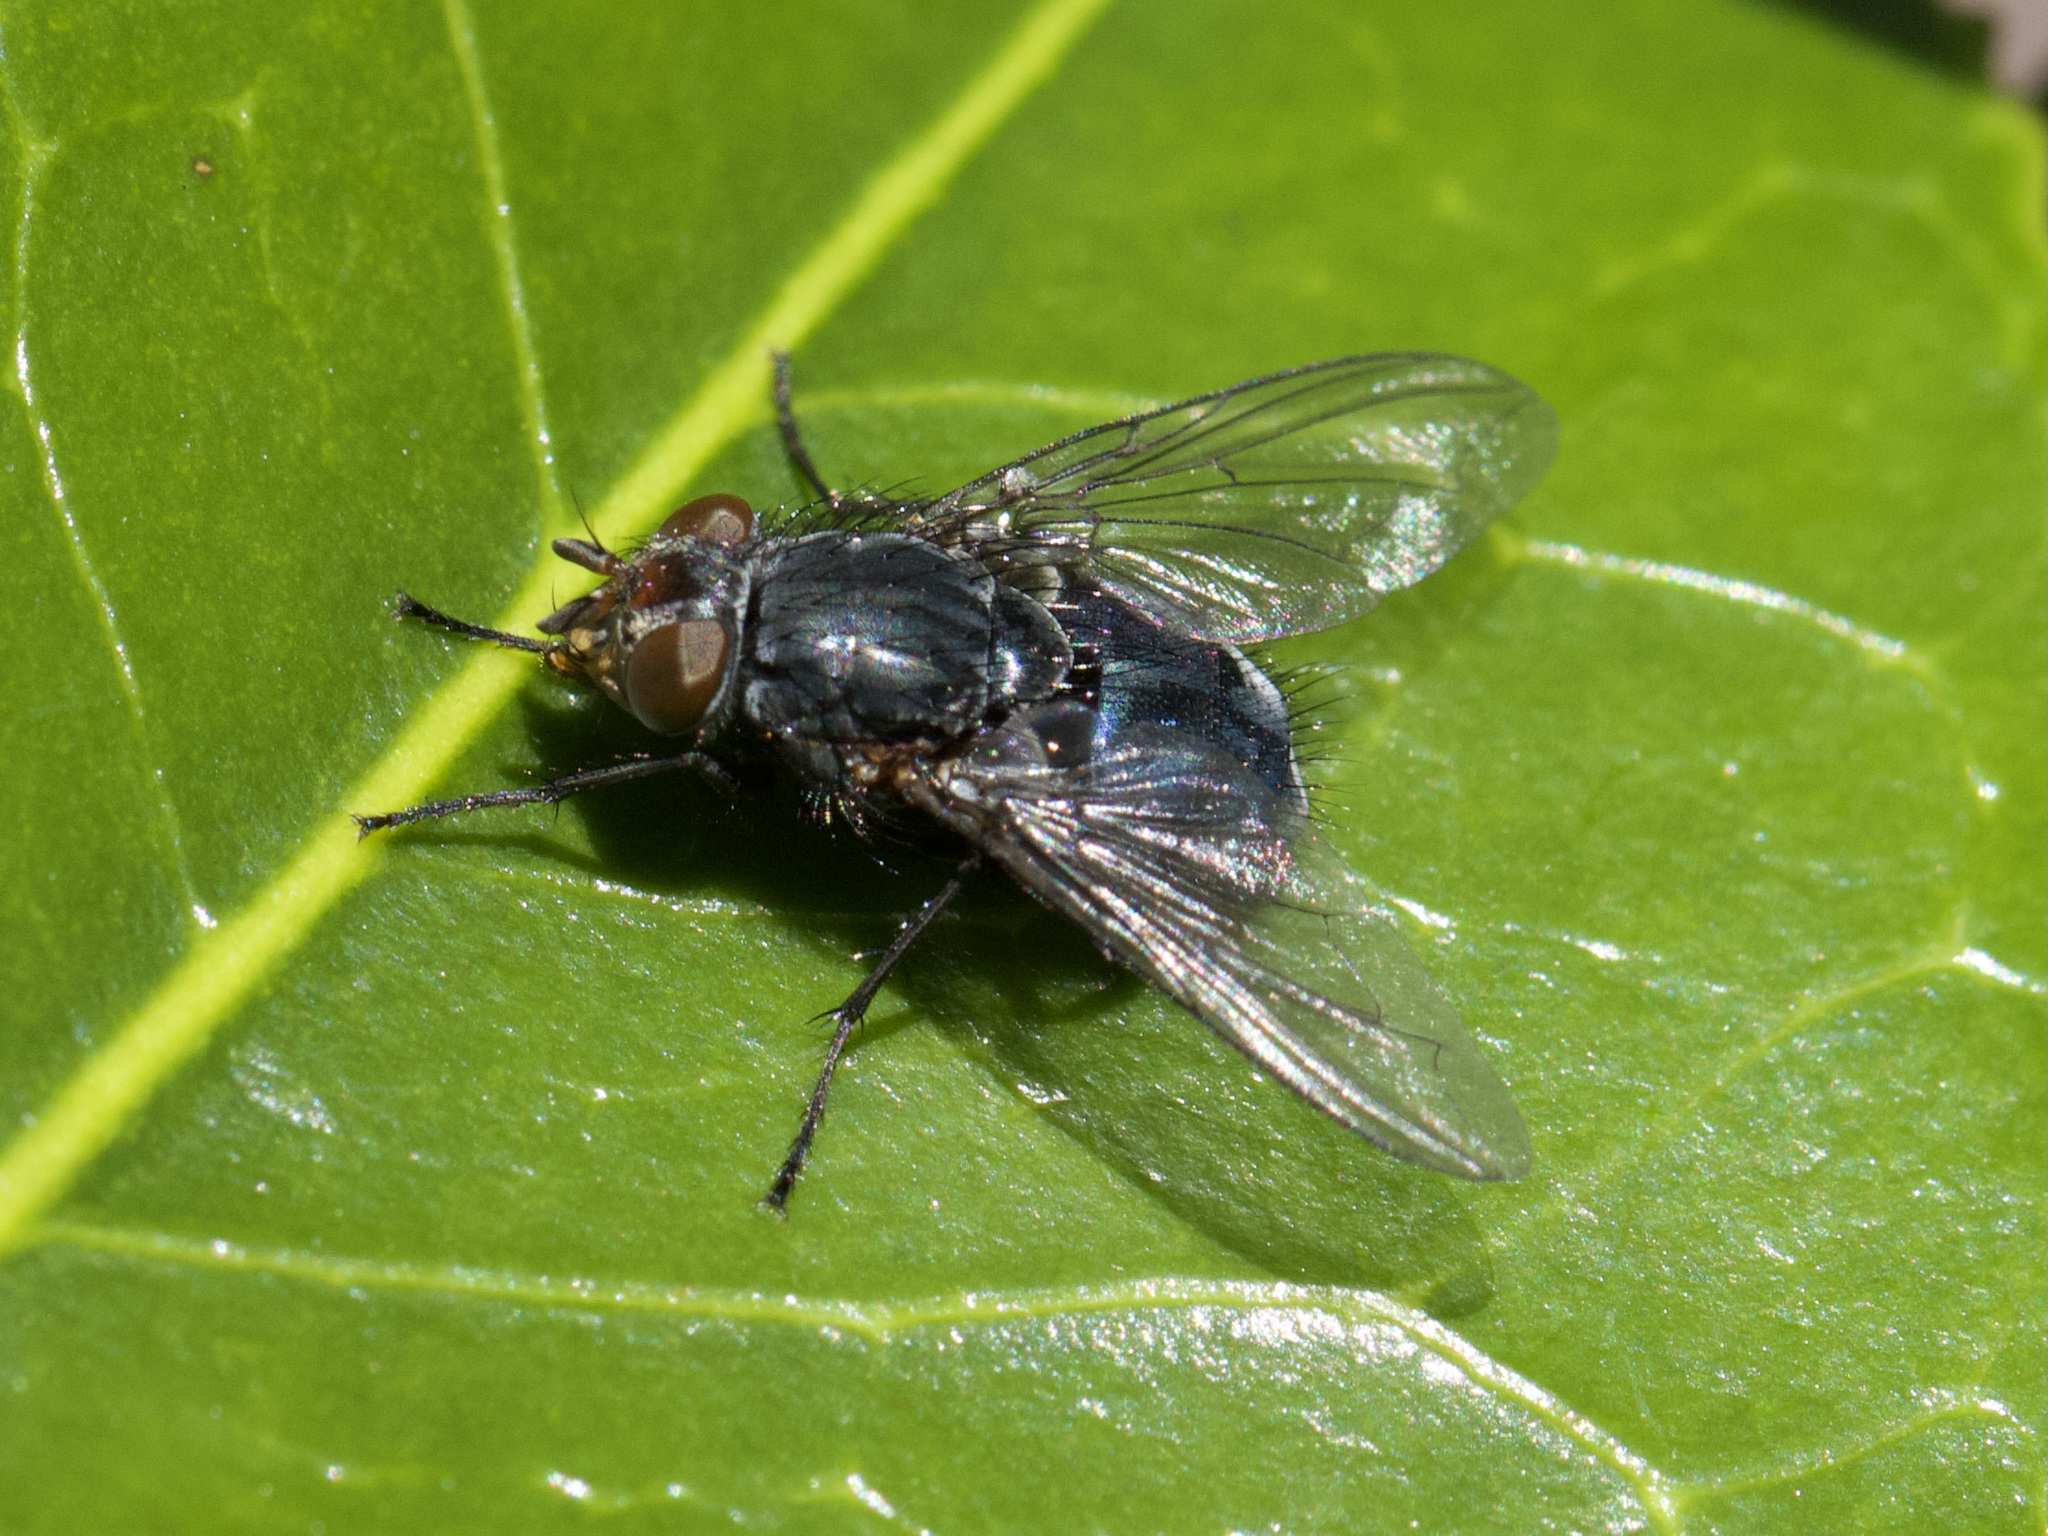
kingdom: Animalia
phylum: Arthropoda
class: Insecta
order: Diptera
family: Calliphoridae
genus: Calliphora
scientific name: Calliphora vicina
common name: Common blow flie
